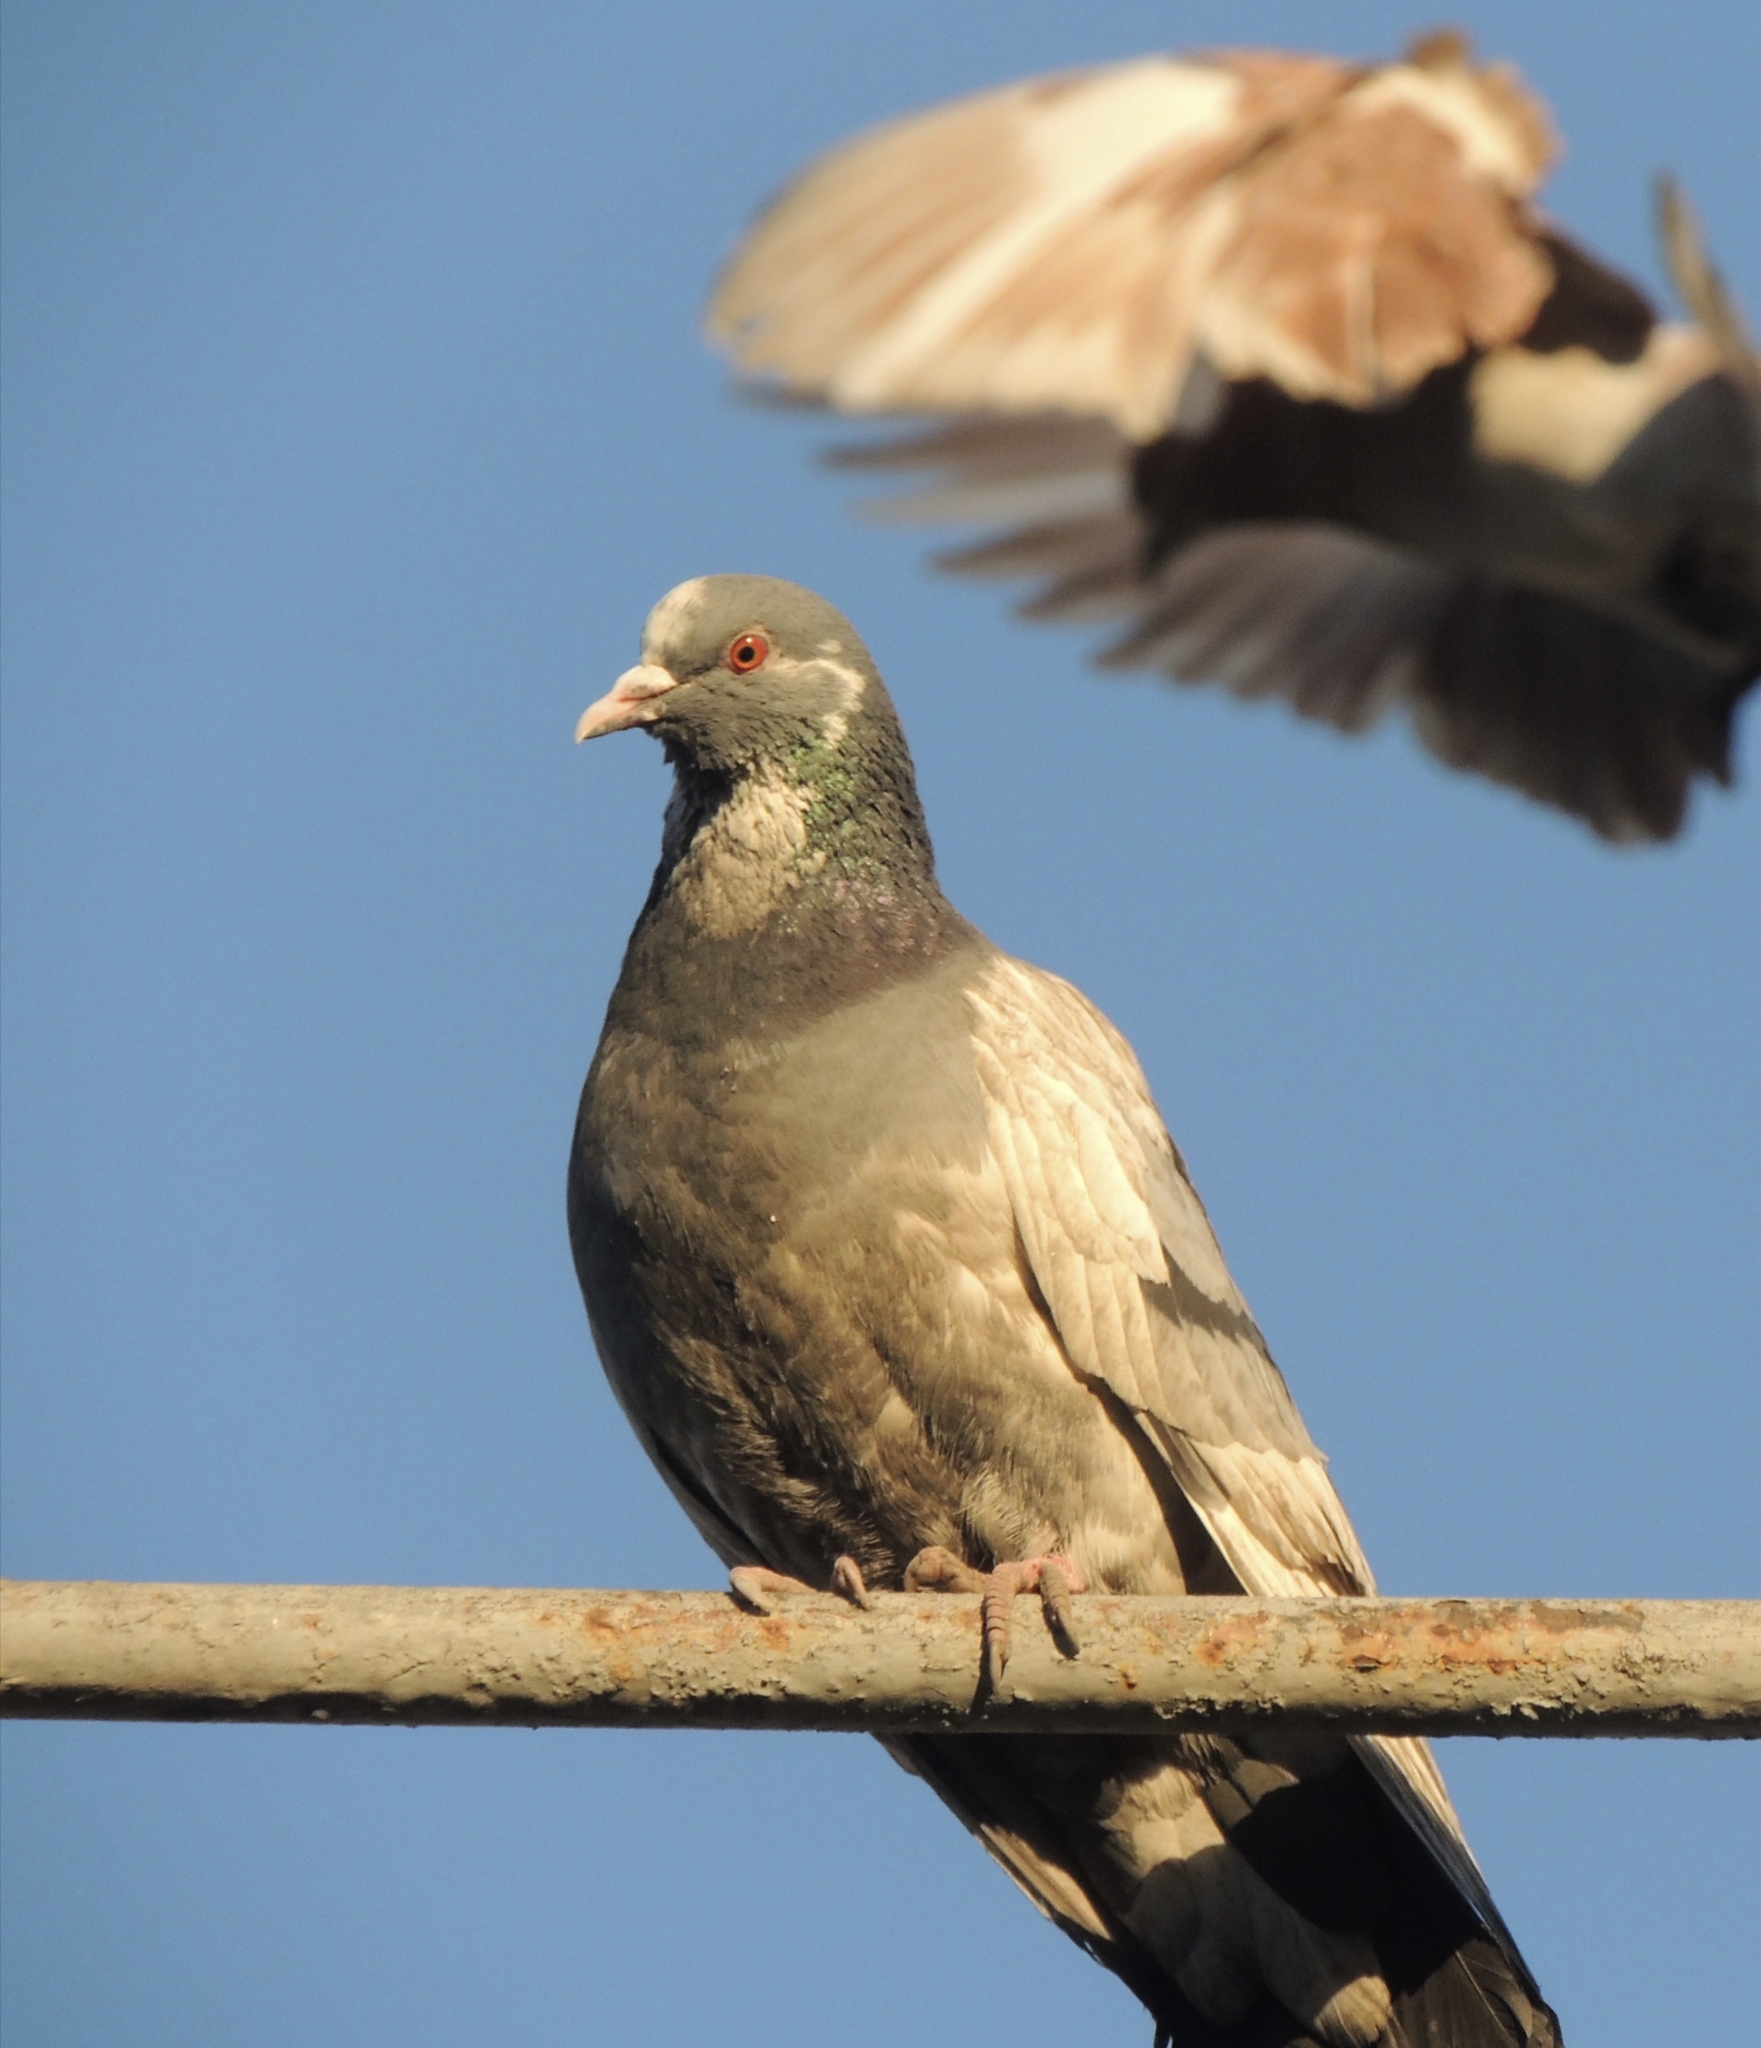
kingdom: Animalia
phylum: Chordata
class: Aves
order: Columbiformes
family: Columbidae
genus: Columba
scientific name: Columba livia
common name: Rock pigeon
